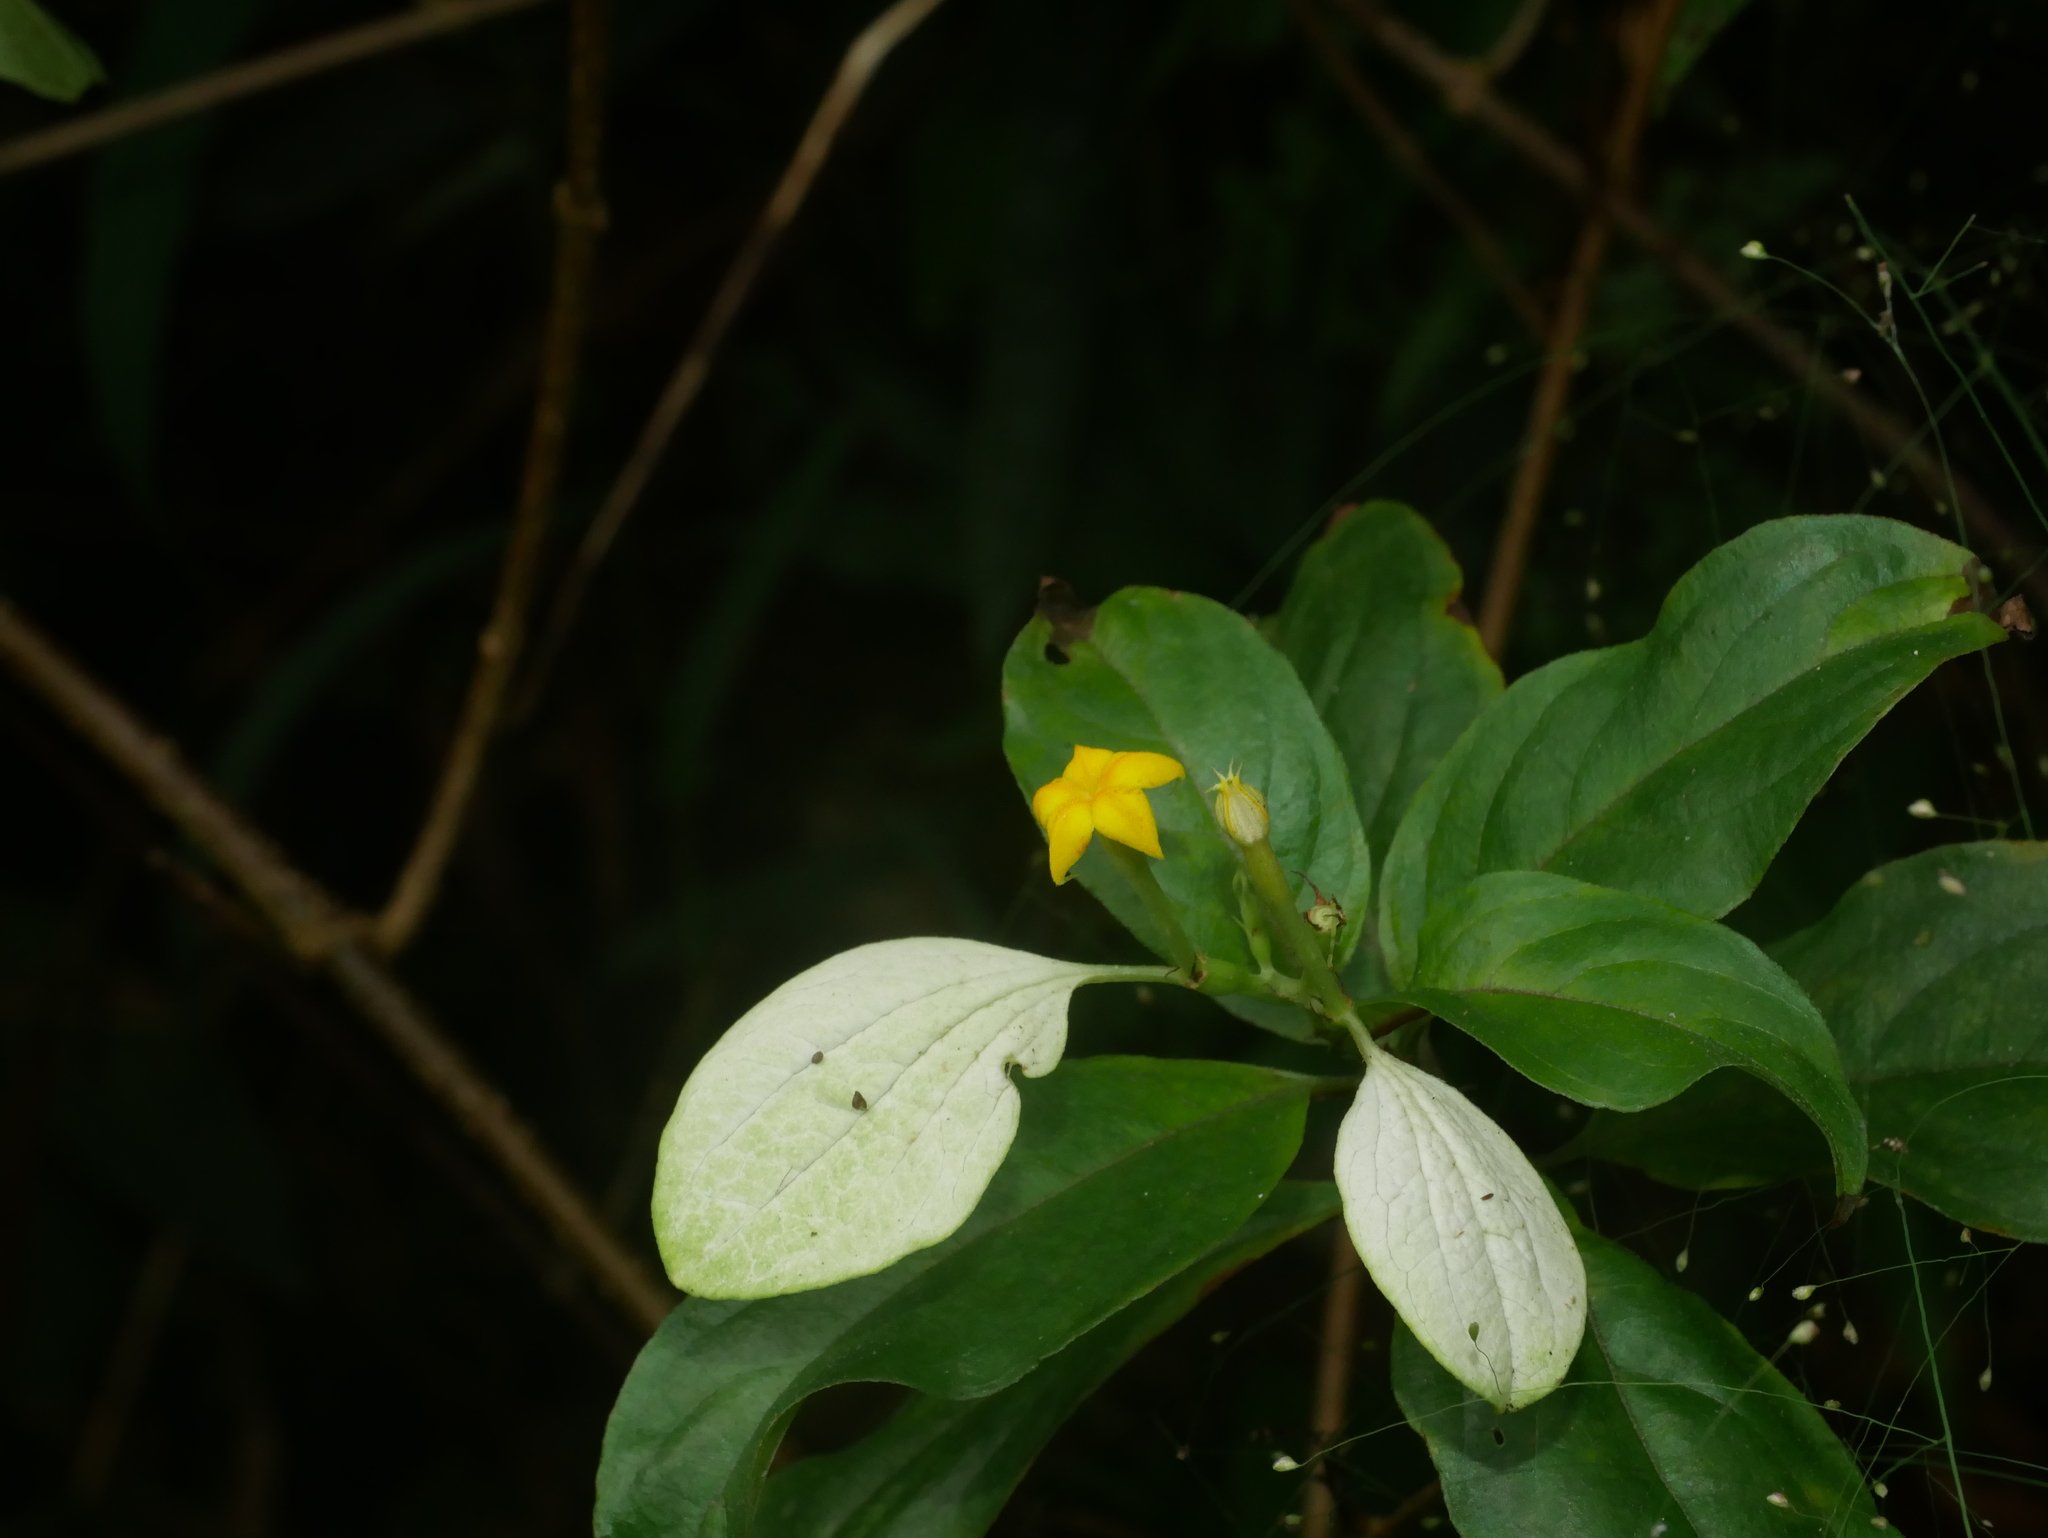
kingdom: Plantae
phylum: Tracheophyta
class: Magnoliopsida
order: Gentianales
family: Rubiaceae
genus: Mussaenda
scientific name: Mussaenda parviflora
